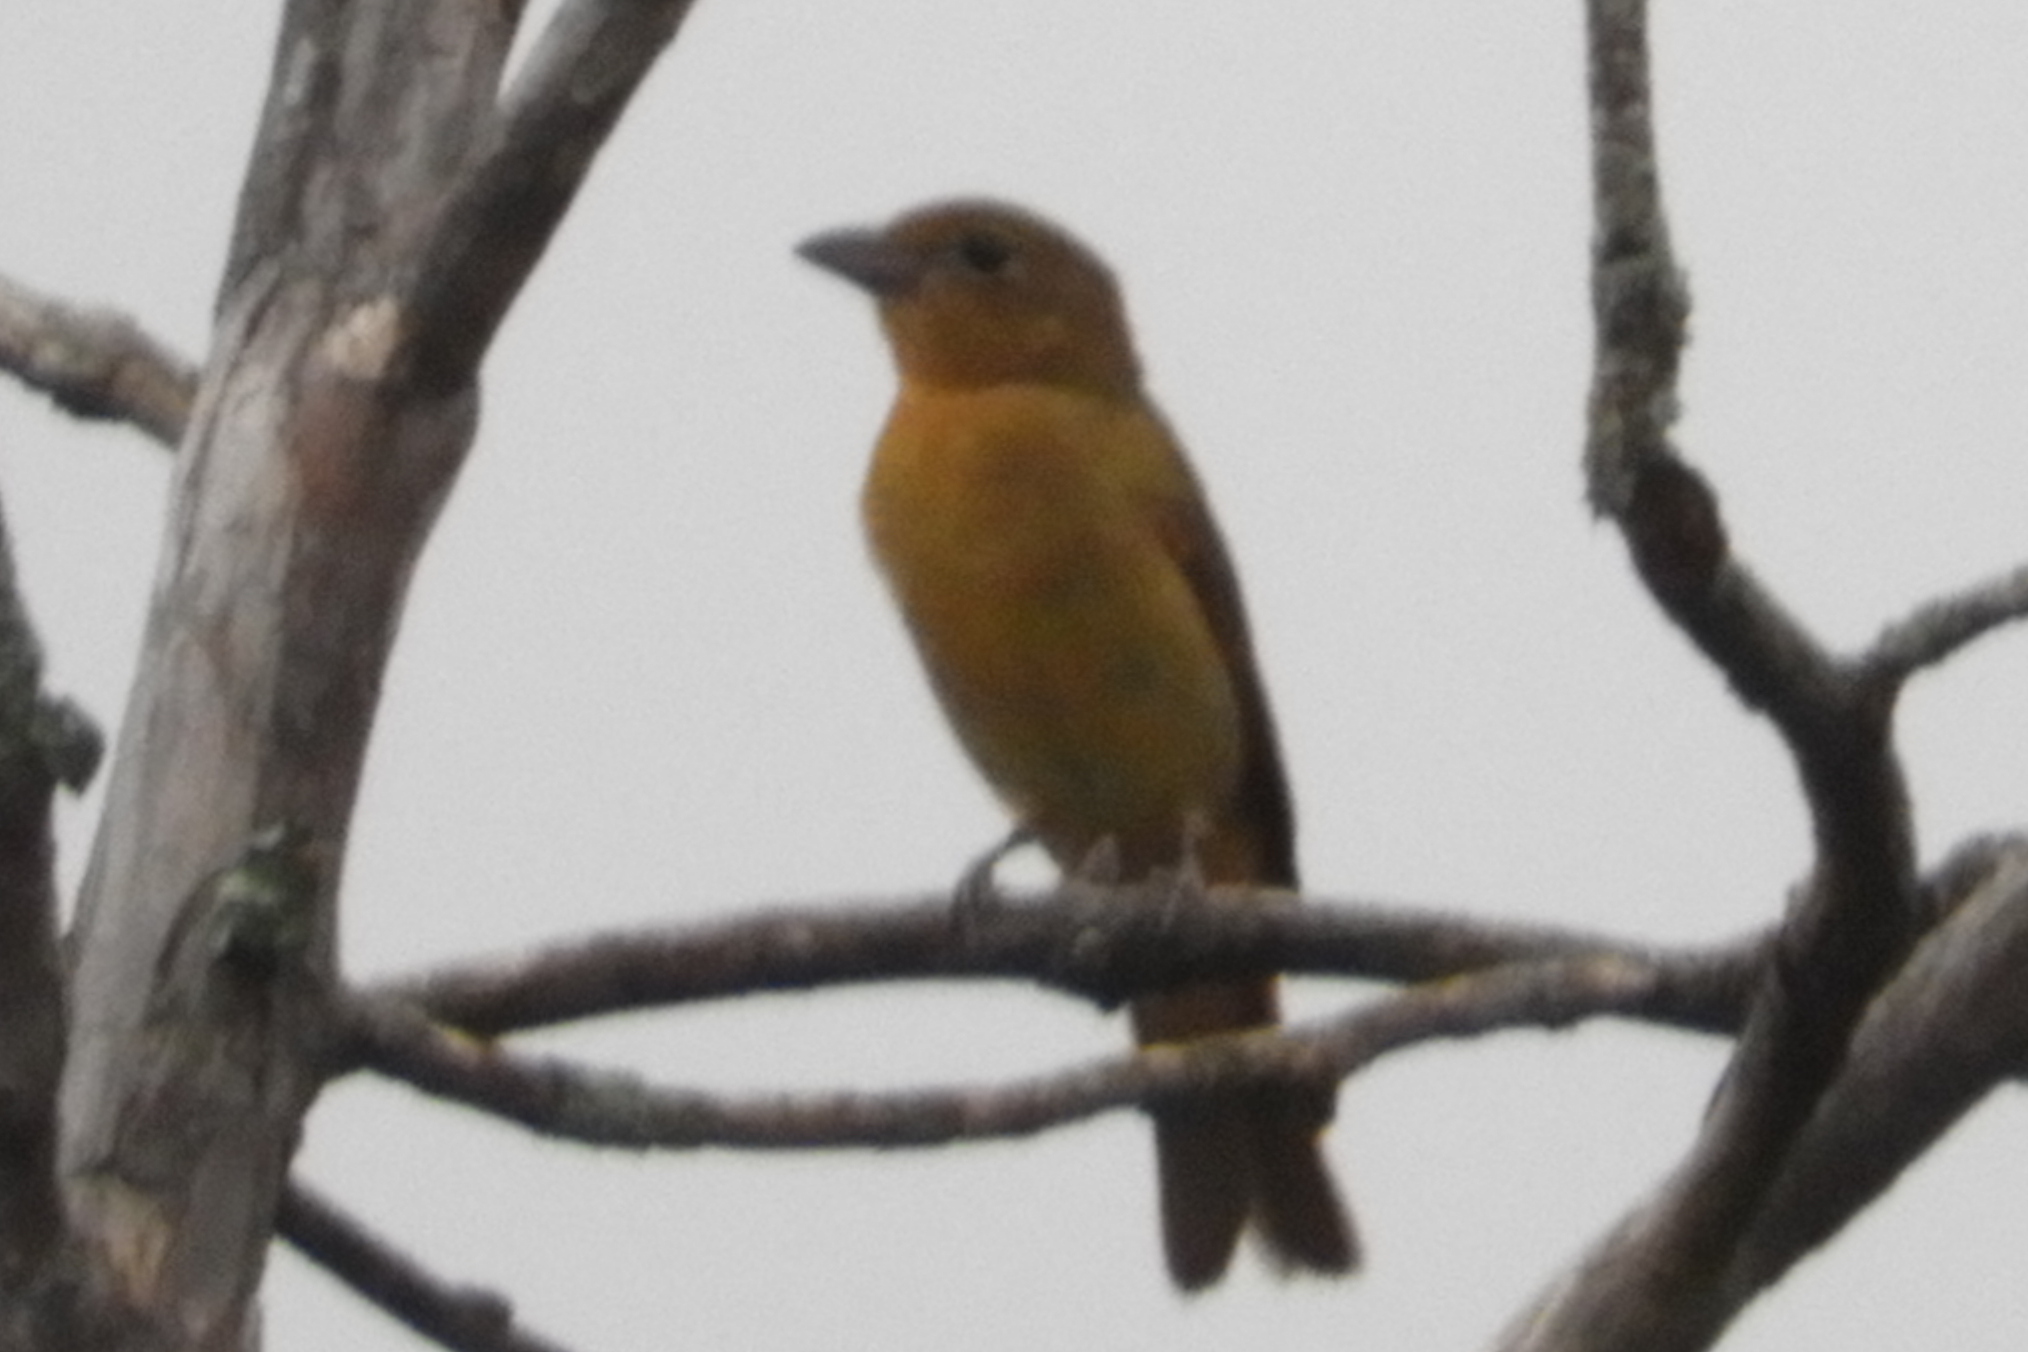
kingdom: Animalia
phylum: Chordata
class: Aves
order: Passeriformes
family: Cardinalidae
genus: Piranga
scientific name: Piranga rubra
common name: Summer tanager
